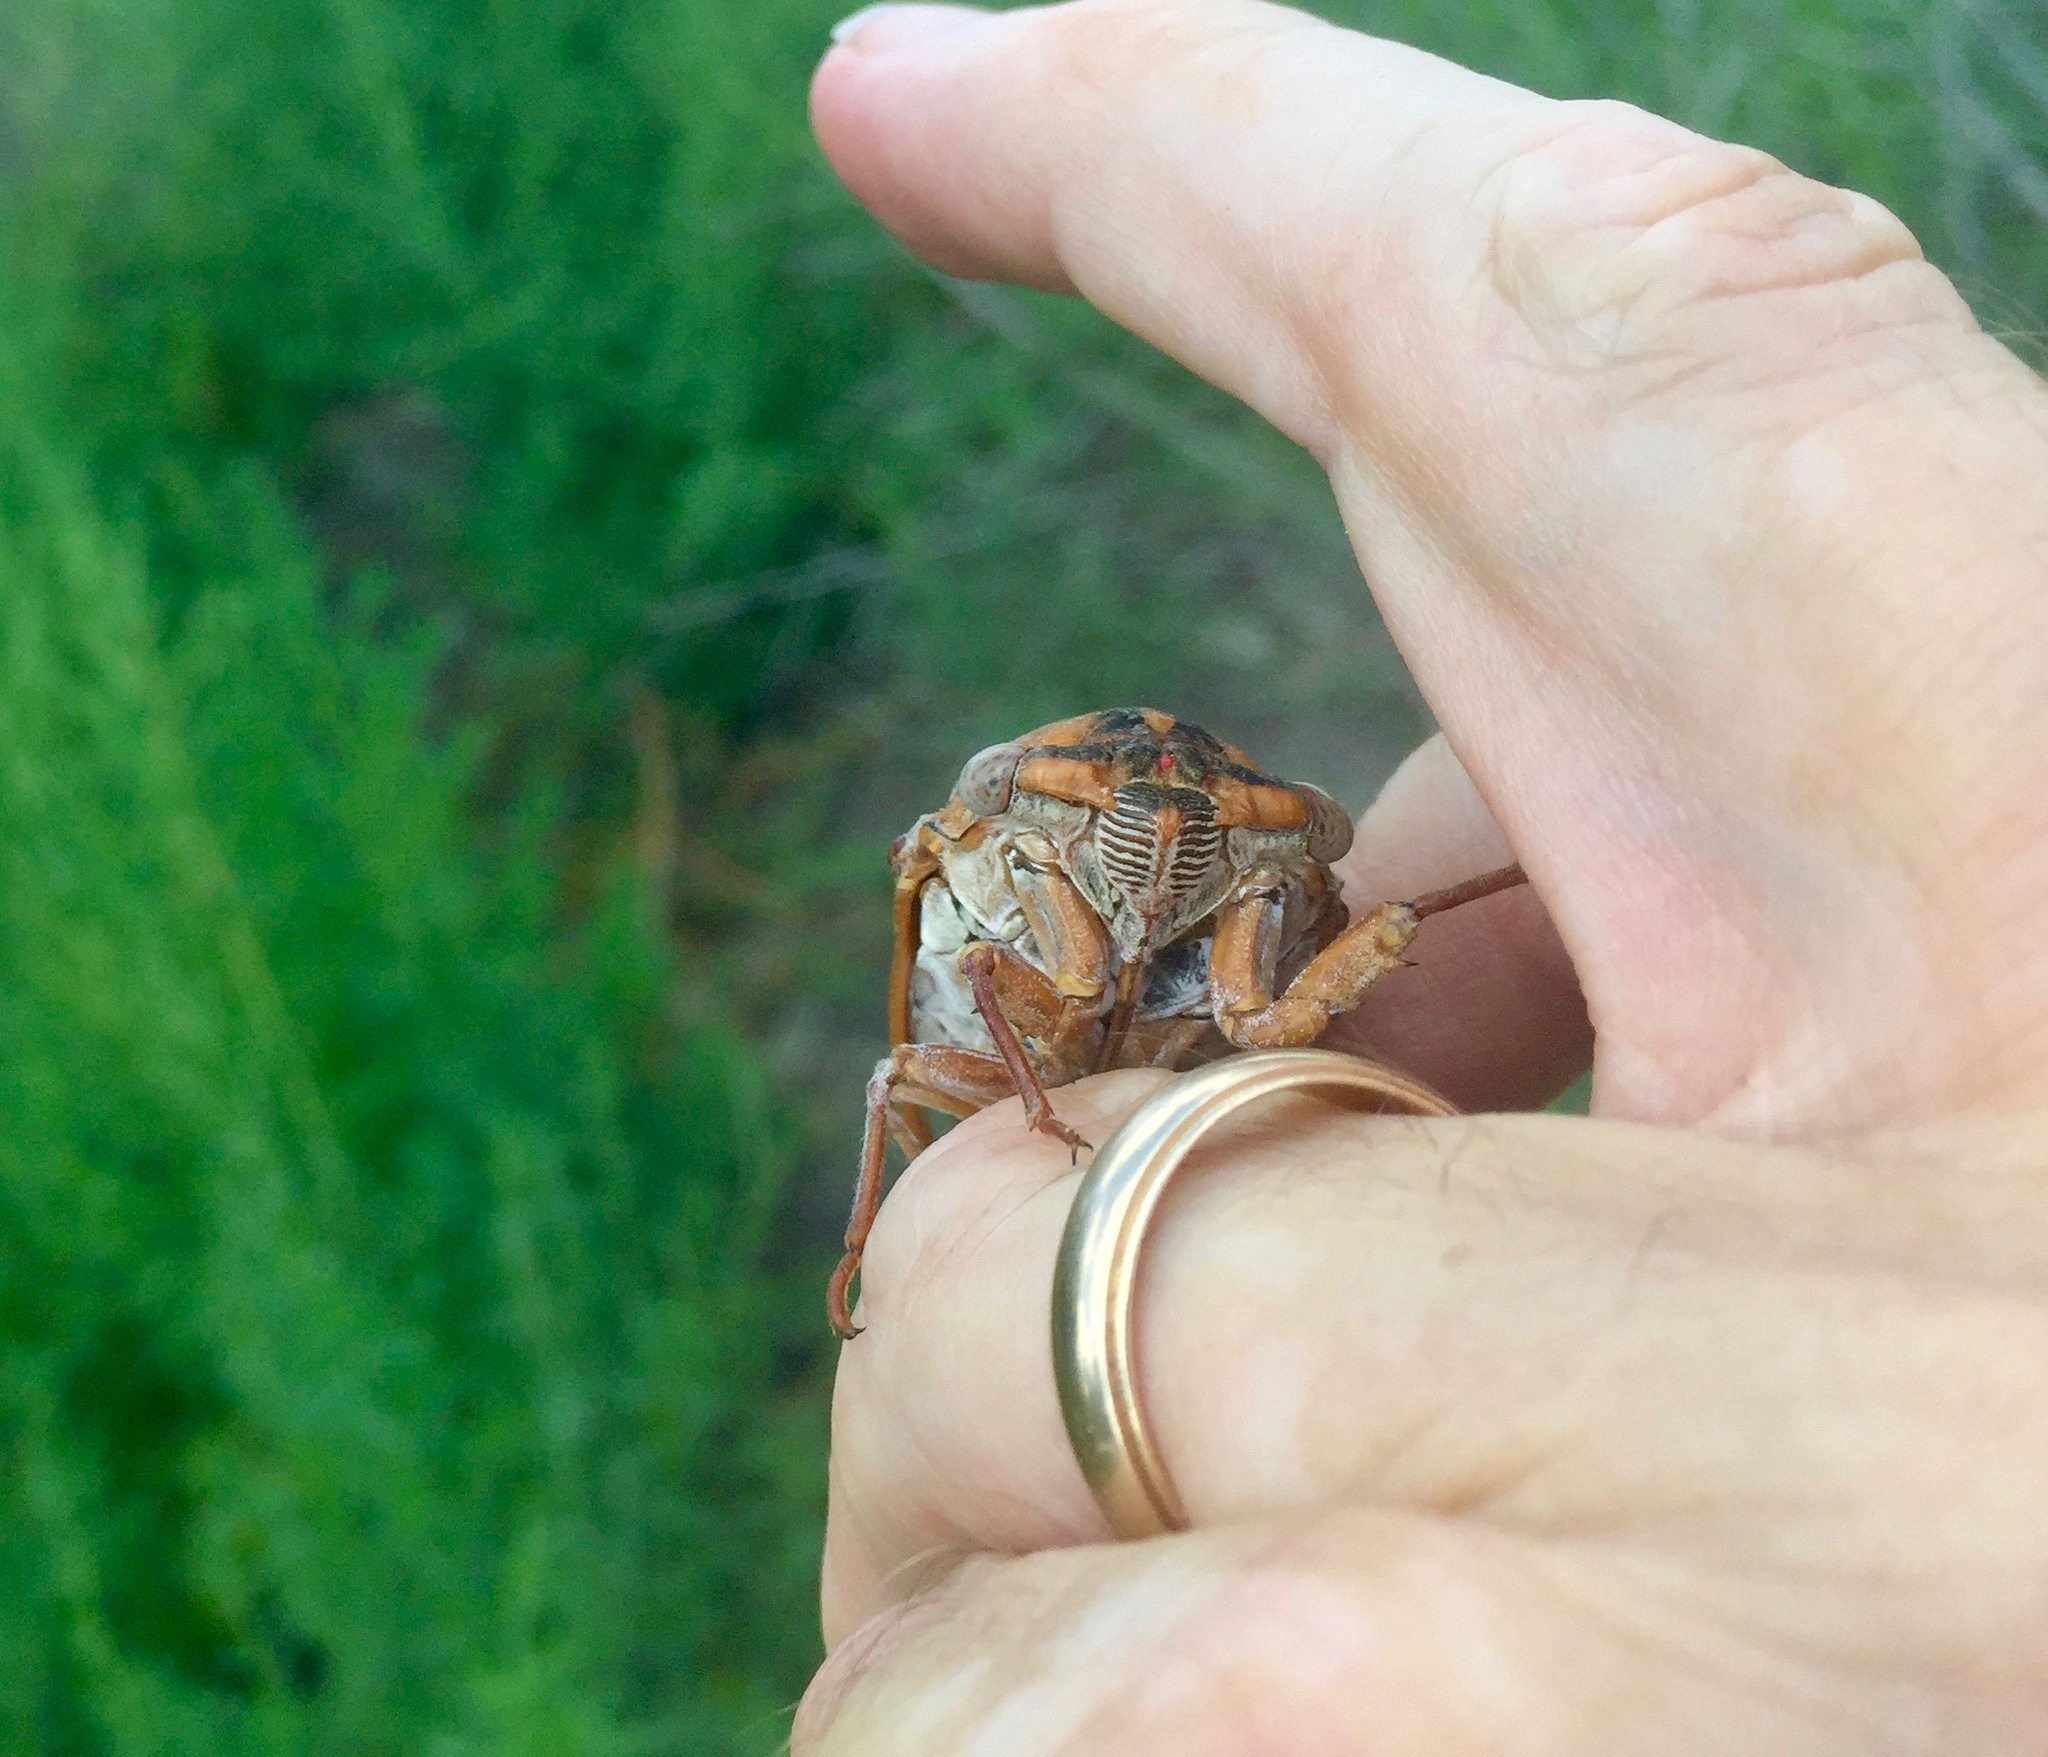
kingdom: Animalia
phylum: Arthropoda
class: Insecta
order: Hemiptera
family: Cicadidae
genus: Megatibicen
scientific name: Megatibicen dealbatus
